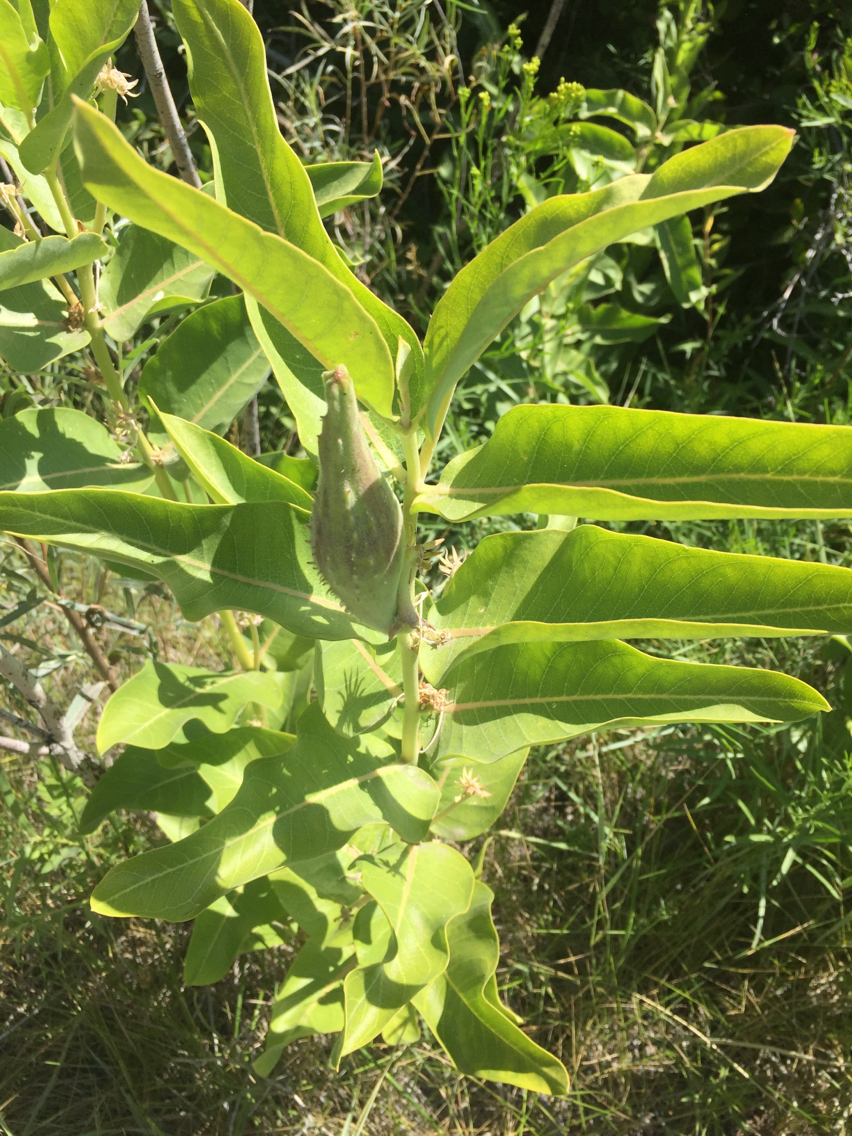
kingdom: Plantae
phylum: Tracheophyta
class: Magnoliopsida
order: Gentianales
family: Apocynaceae
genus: Asclepias
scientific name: Asclepias speciosa
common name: Showy milkweed
